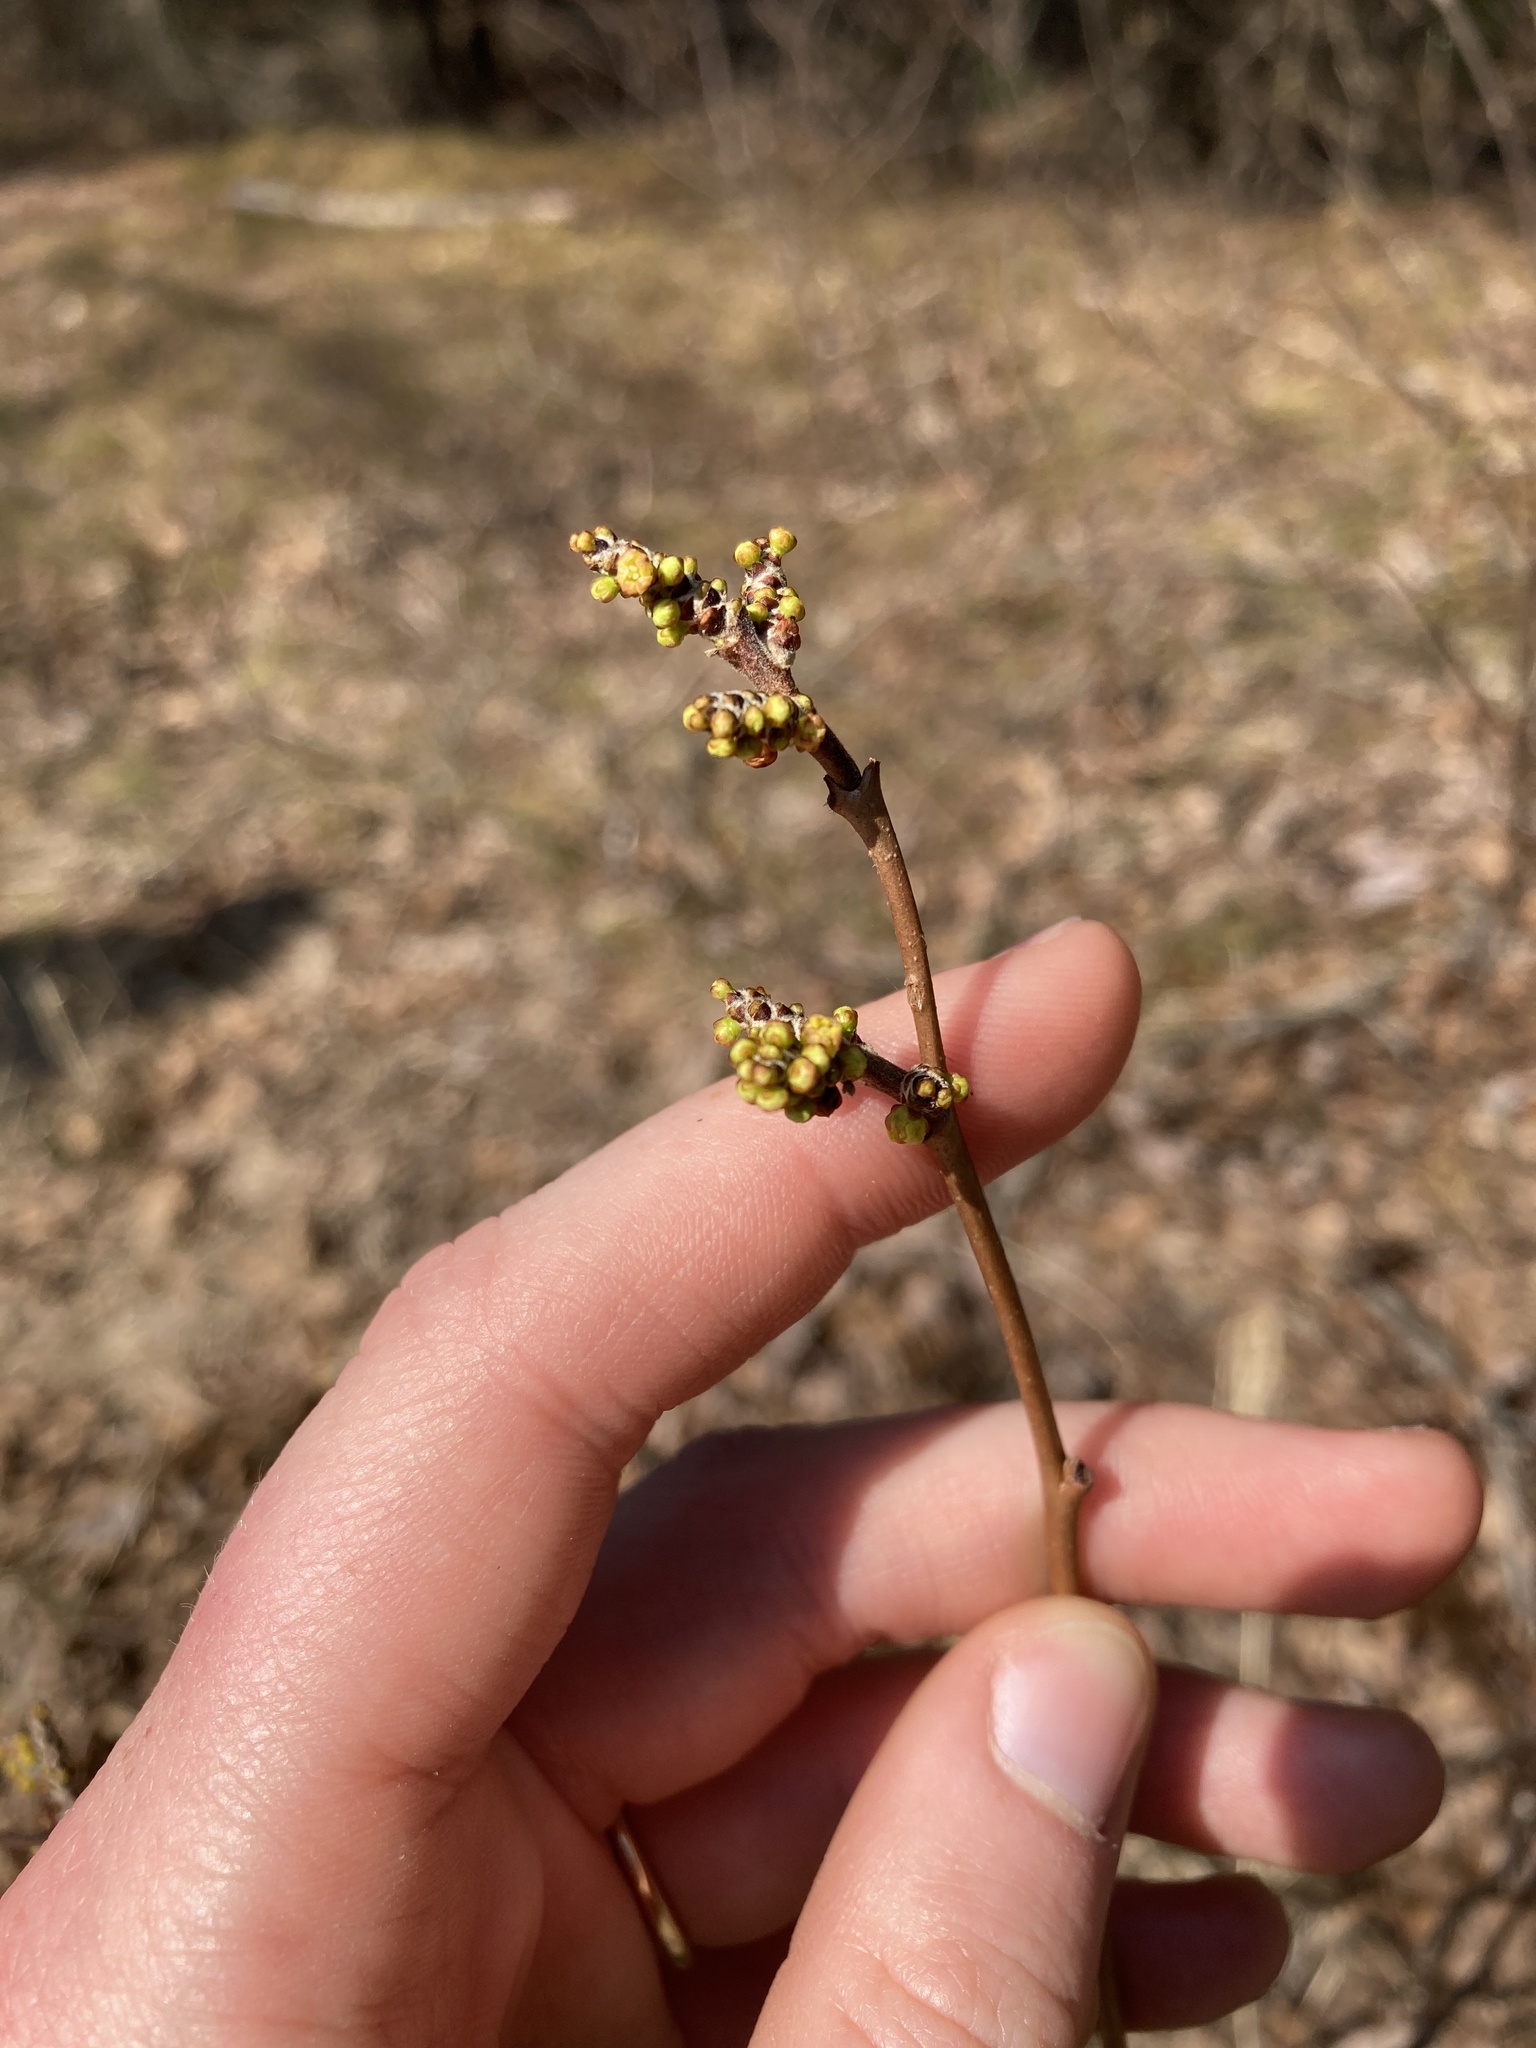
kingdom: Plantae
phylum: Tracheophyta
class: Magnoliopsida
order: Sapindales
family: Anacardiaceae
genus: Rhus
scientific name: Rhus aromatica
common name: Aromatic sumac
